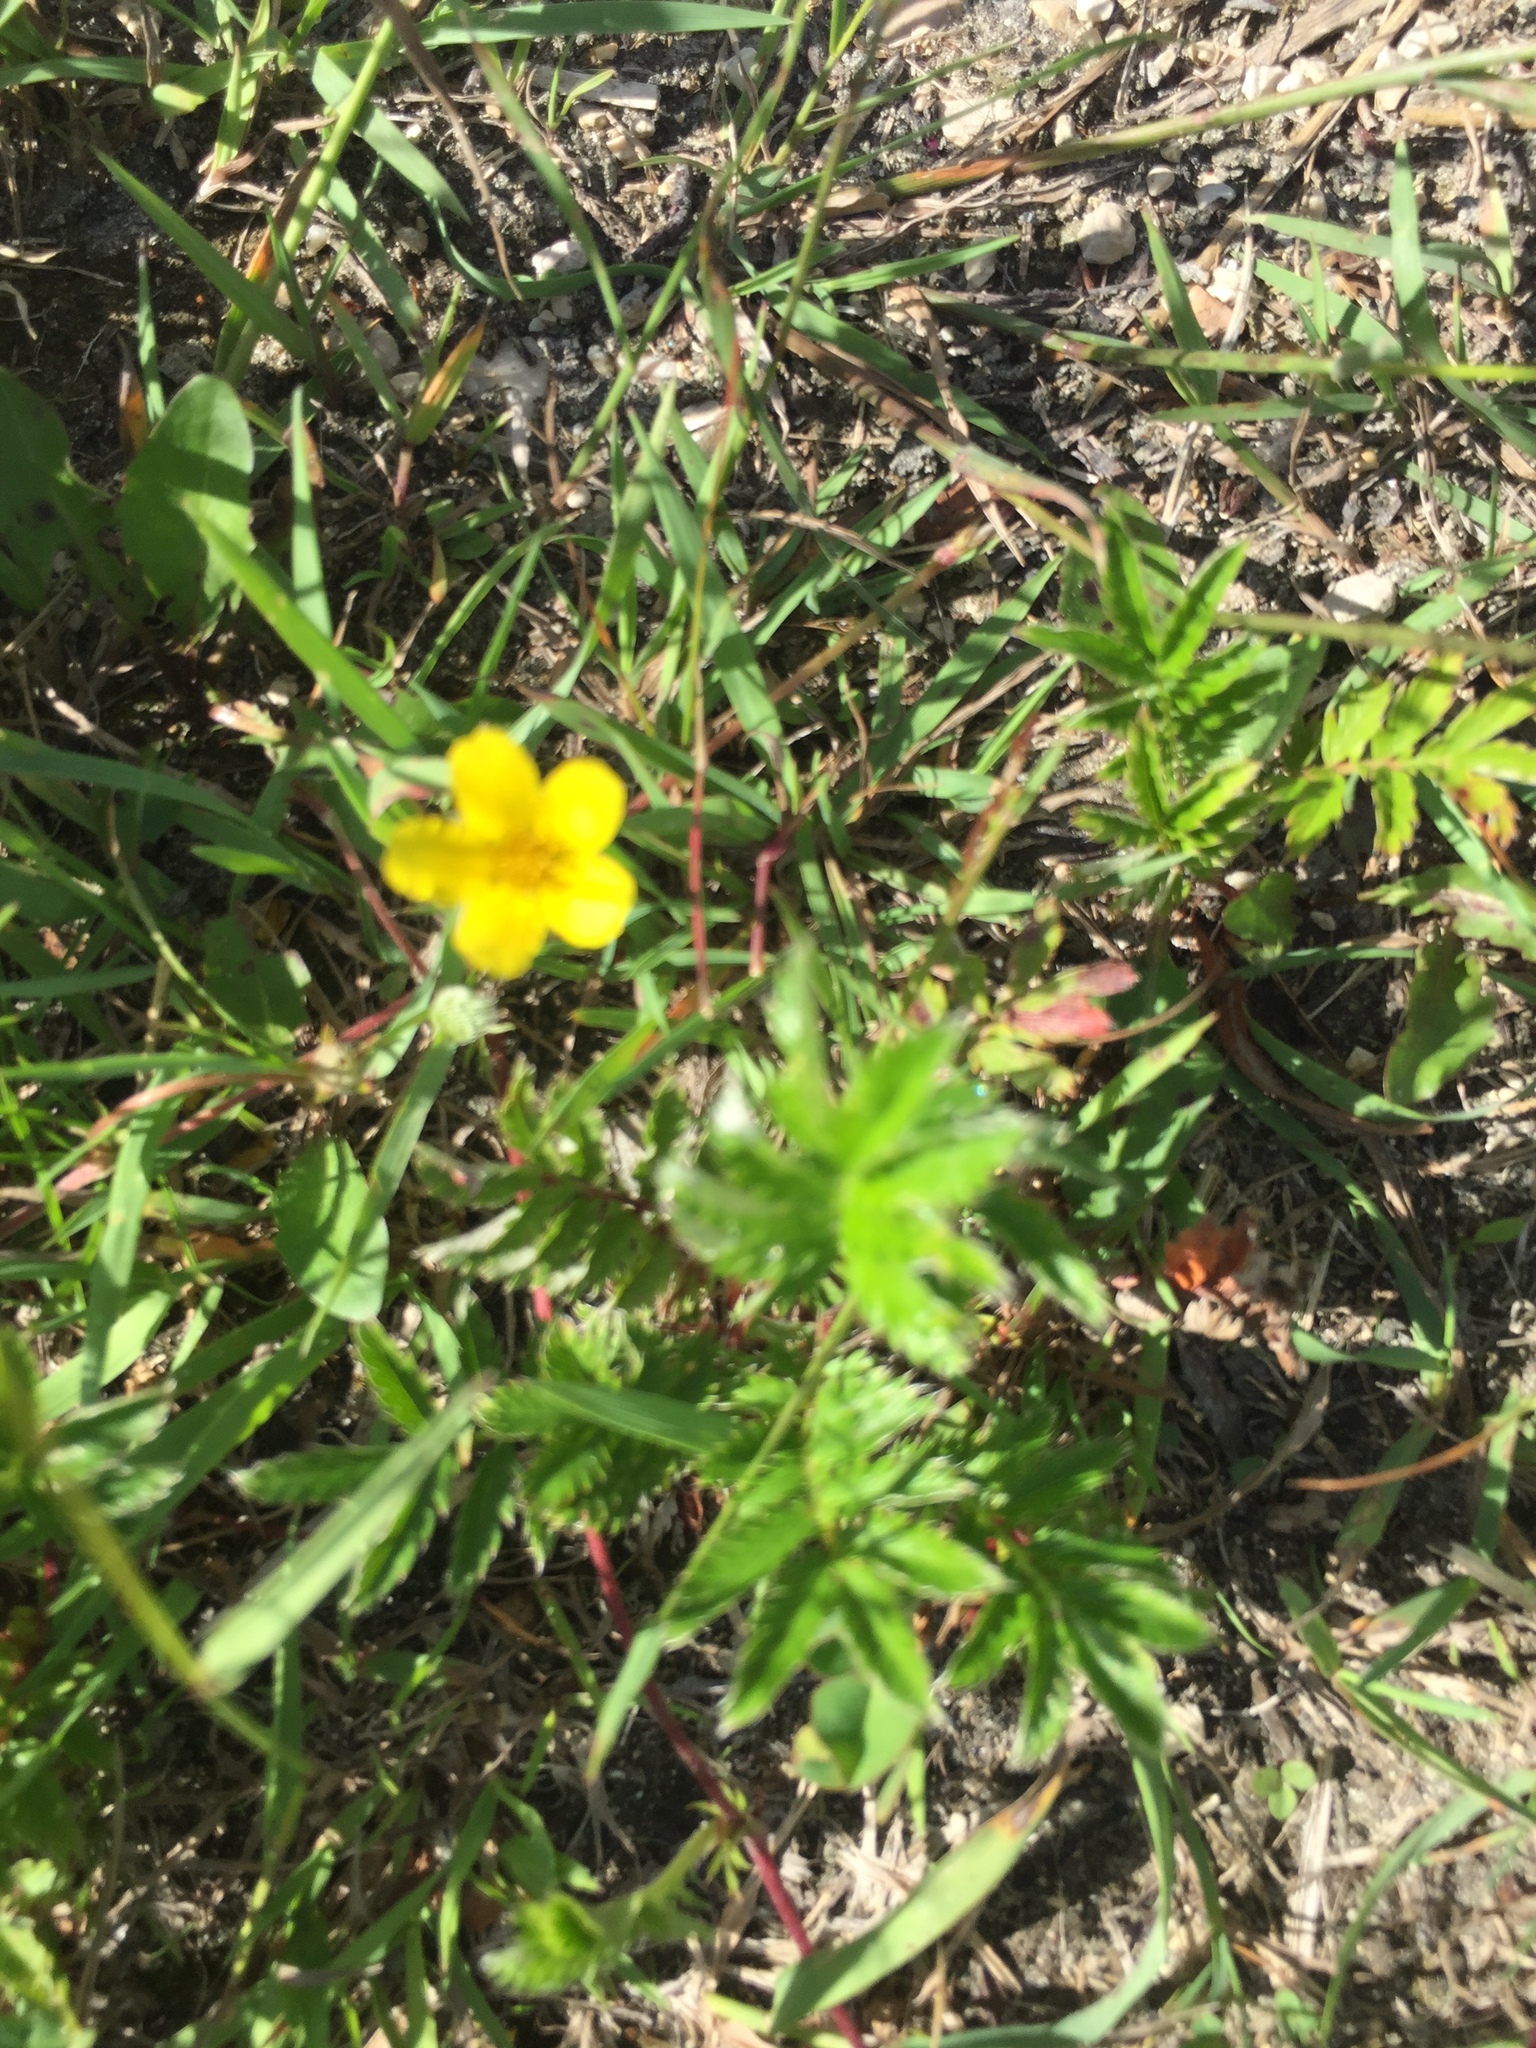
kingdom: Plantae
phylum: Tracheophyta
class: Magnoliopsida
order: Rosales
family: Rosaceae
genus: Argentina
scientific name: Argentina anserina
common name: Common silverweed
